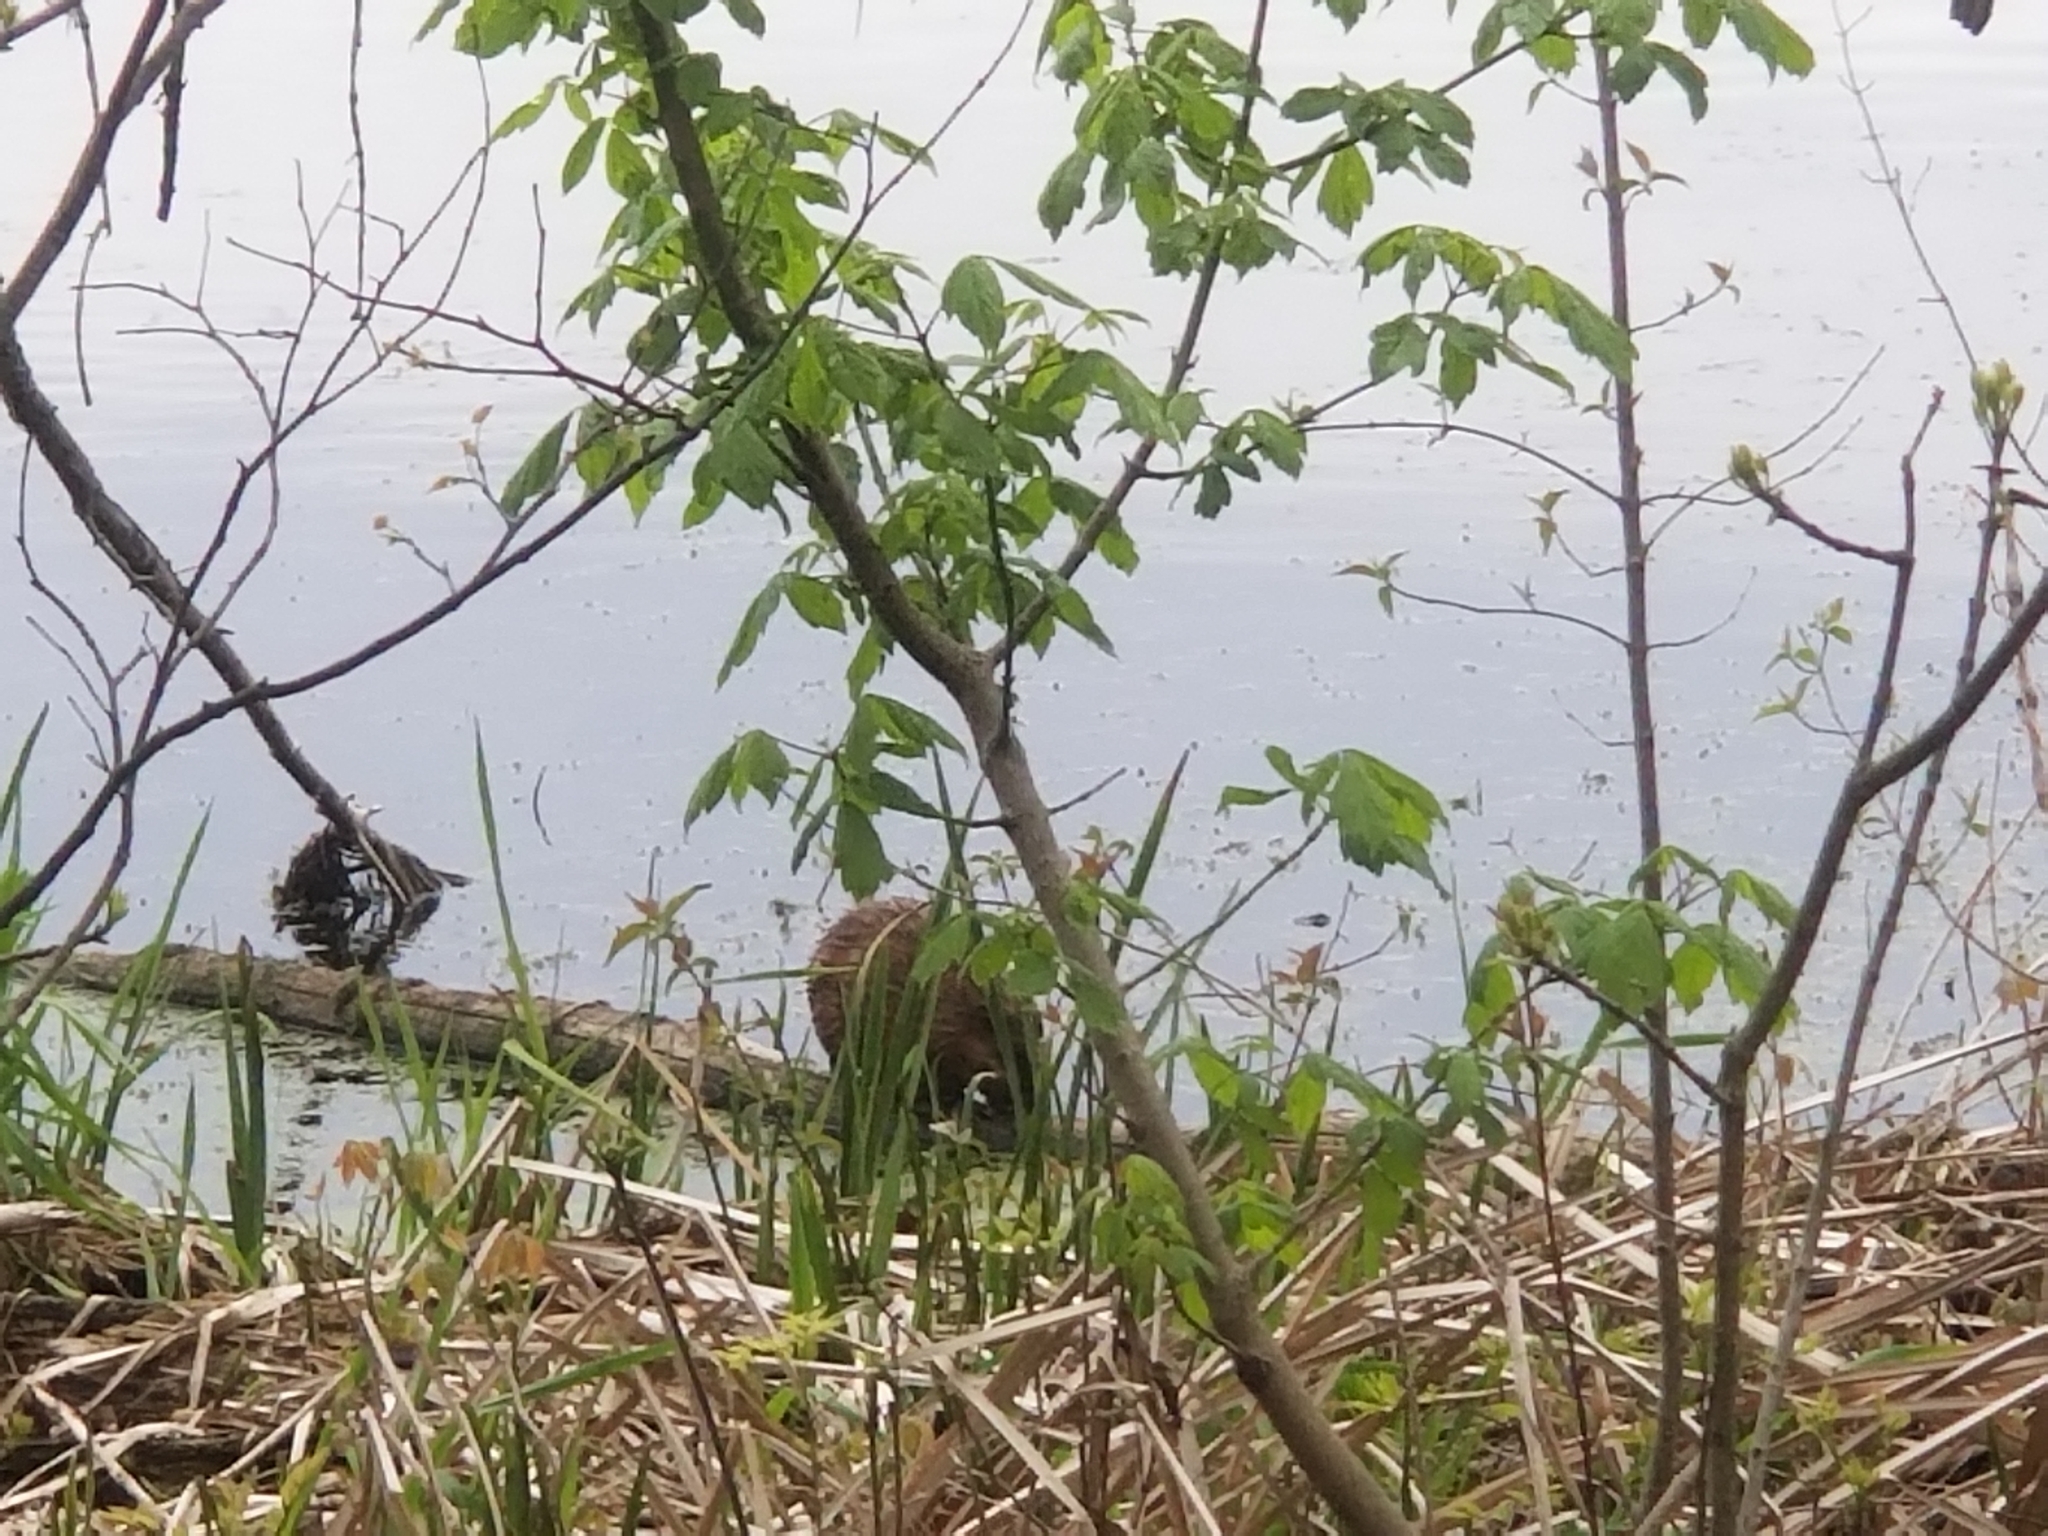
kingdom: Animalia
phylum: Chordata
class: Mammalia
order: Rodentia
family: Cricetidae
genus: Ondatra
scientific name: Ondatra zibethicus
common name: Muskrat
